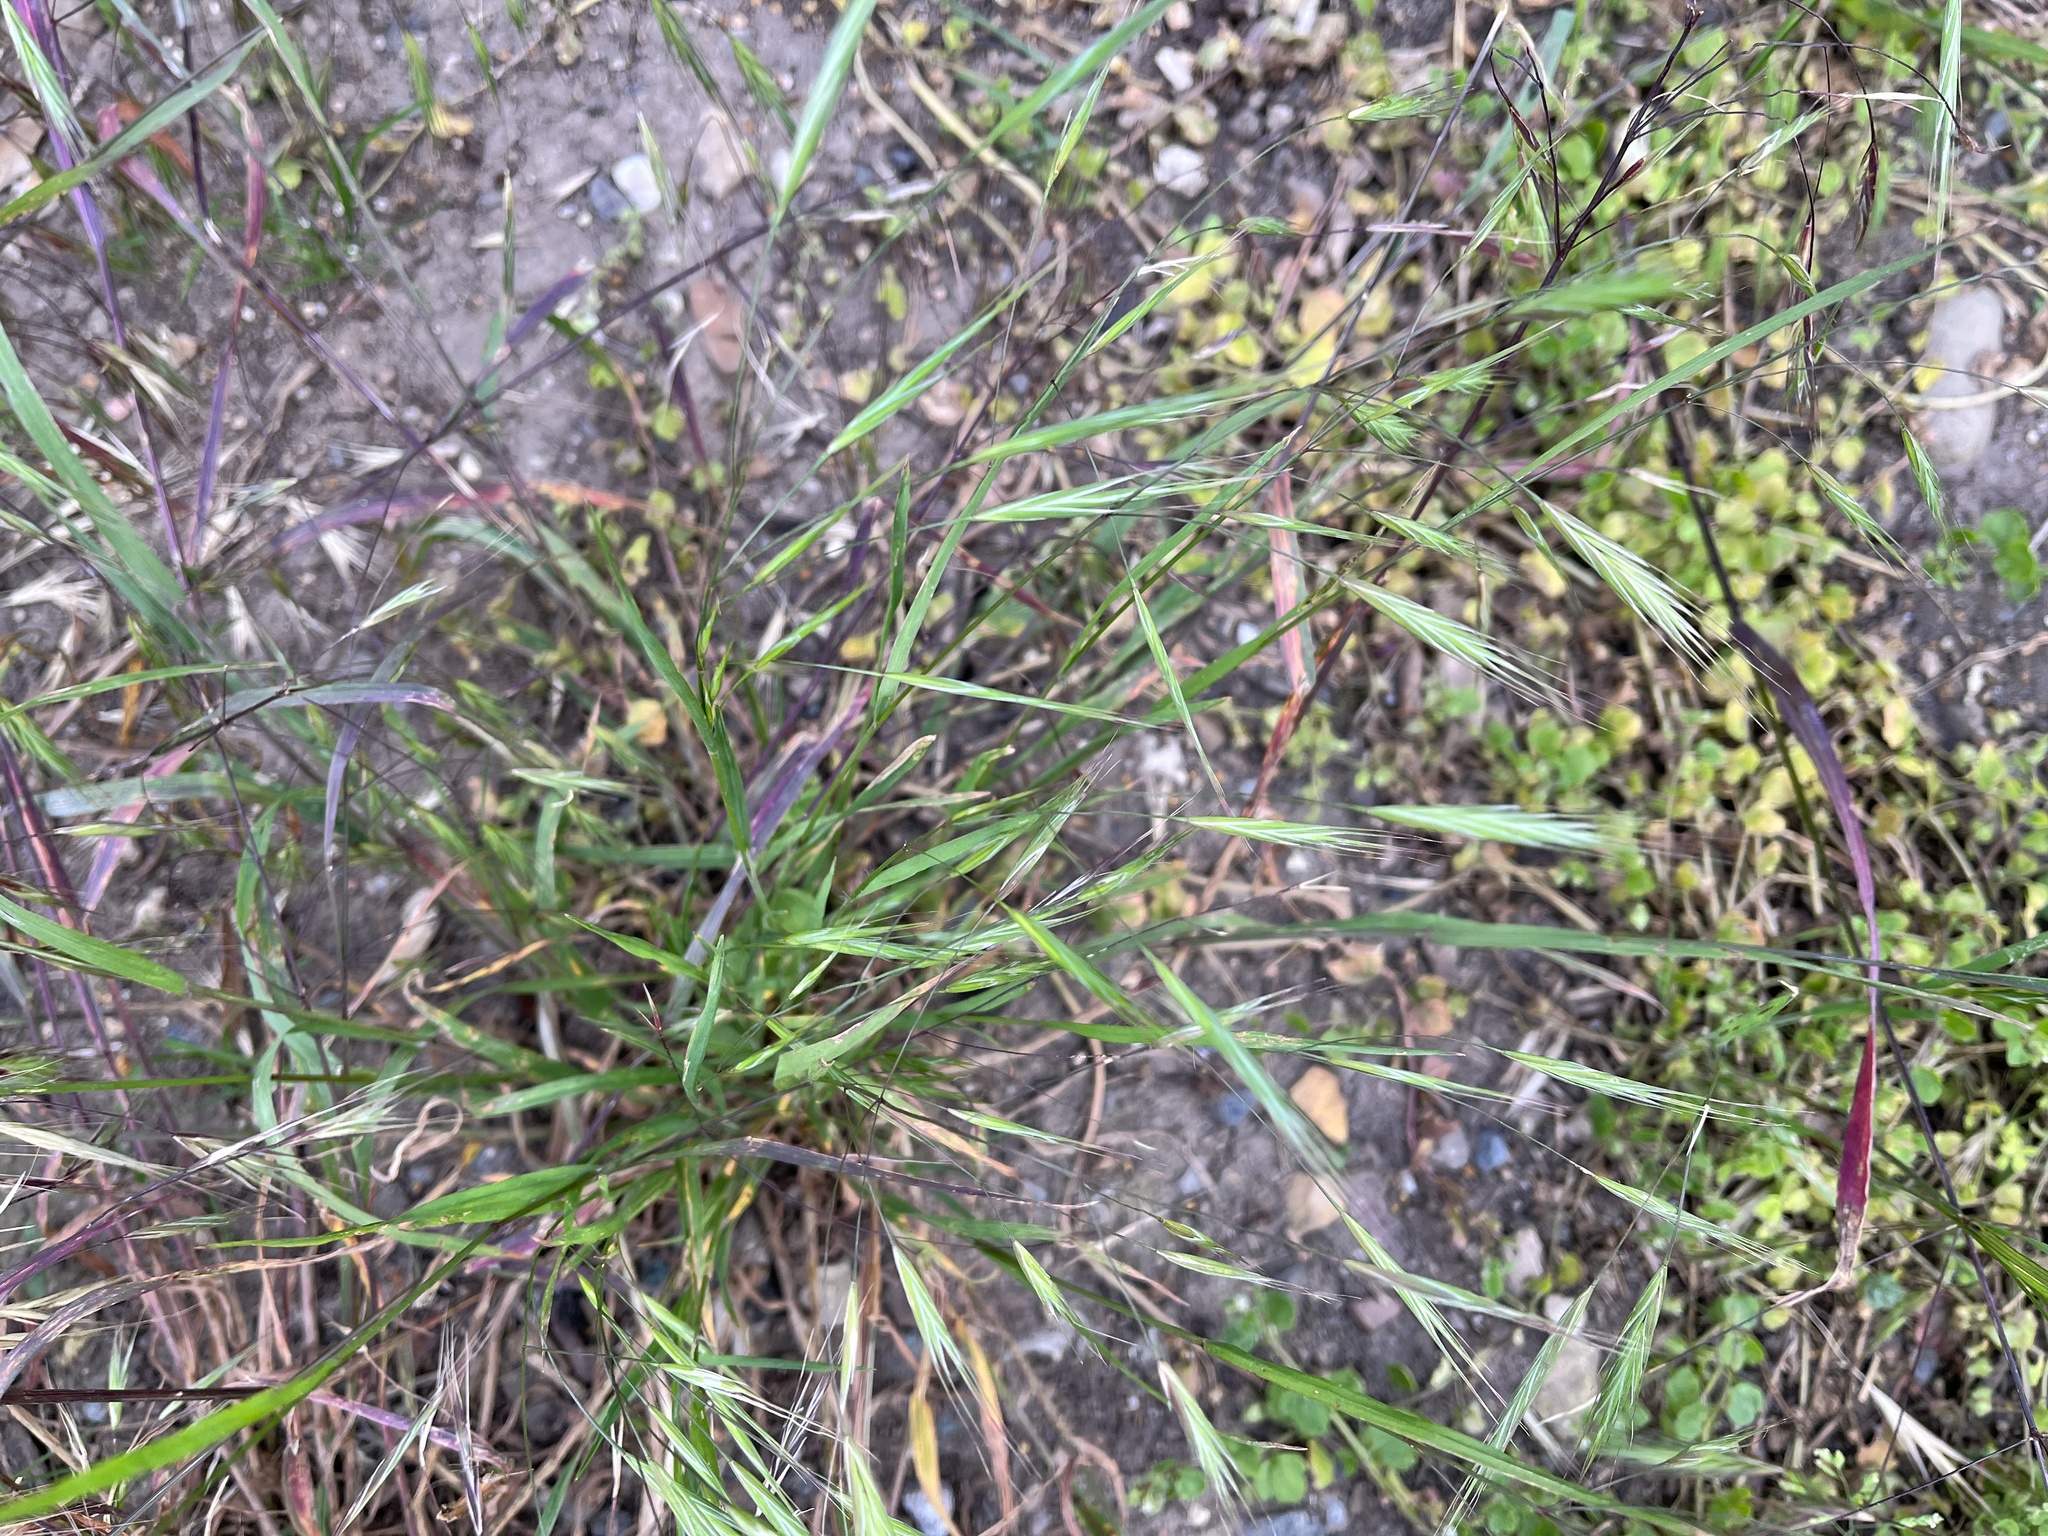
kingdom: Plantae
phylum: Tracheophyta
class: Liliopsida
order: Poales
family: Poaceae
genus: Bromus
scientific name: Bromus sterilis
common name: Poverty brome
